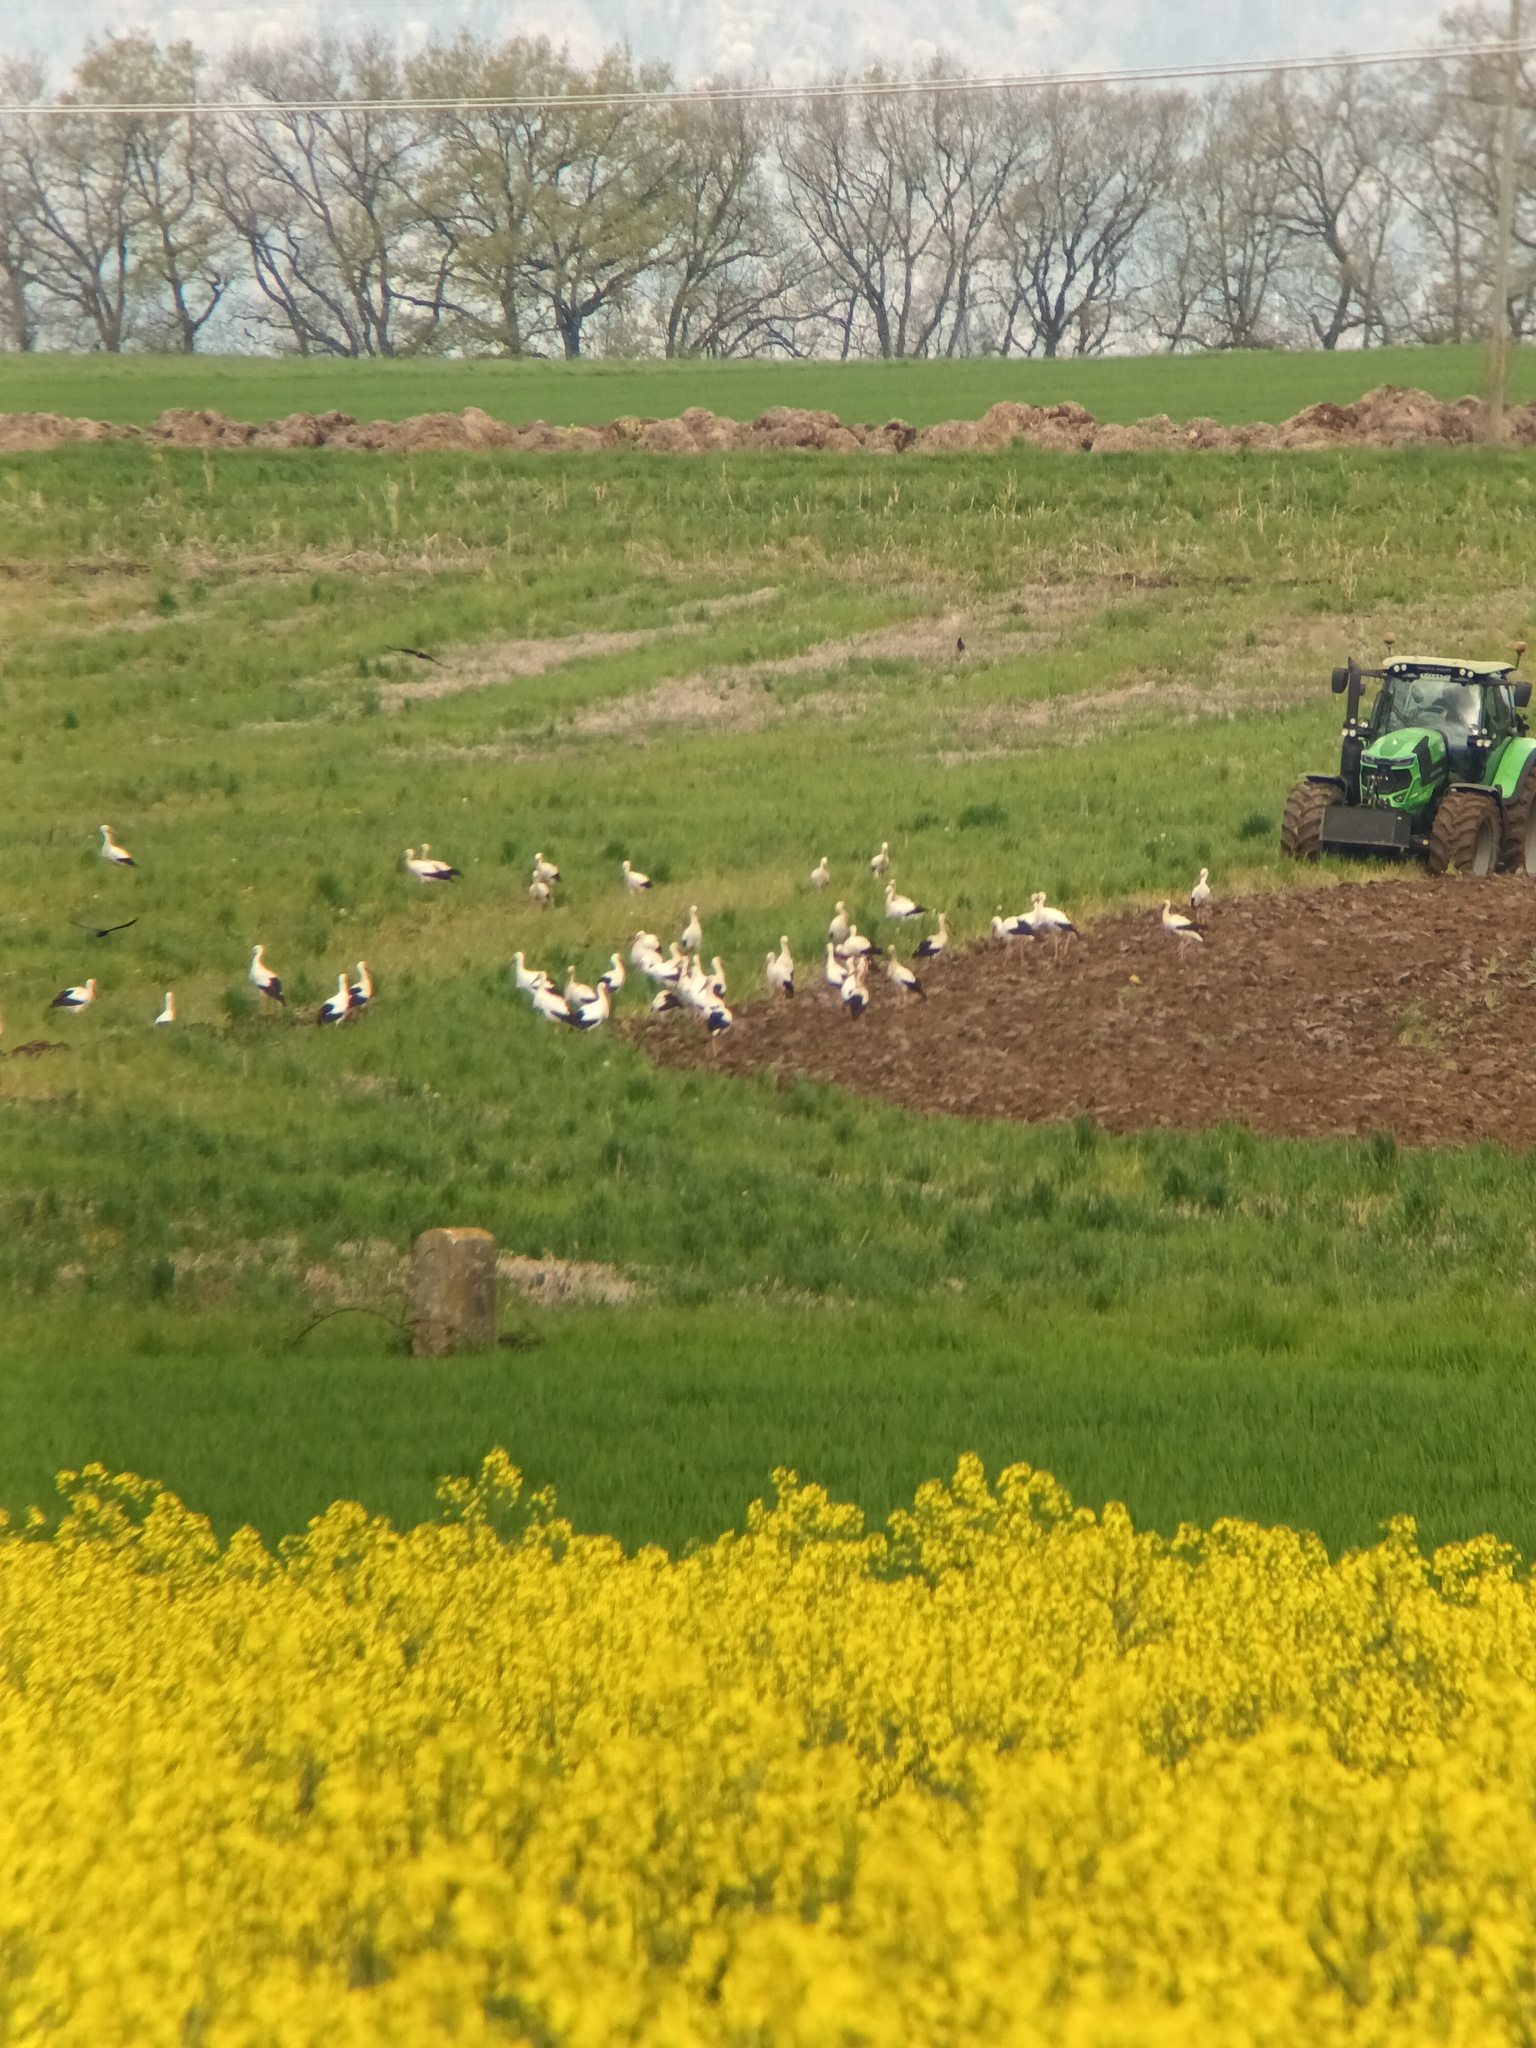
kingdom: Animalia
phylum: Chordata
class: Aves
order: Ciconiiformes
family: Ciconiidae
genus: Ciconia
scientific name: Ciconia ciconia
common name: White stork
